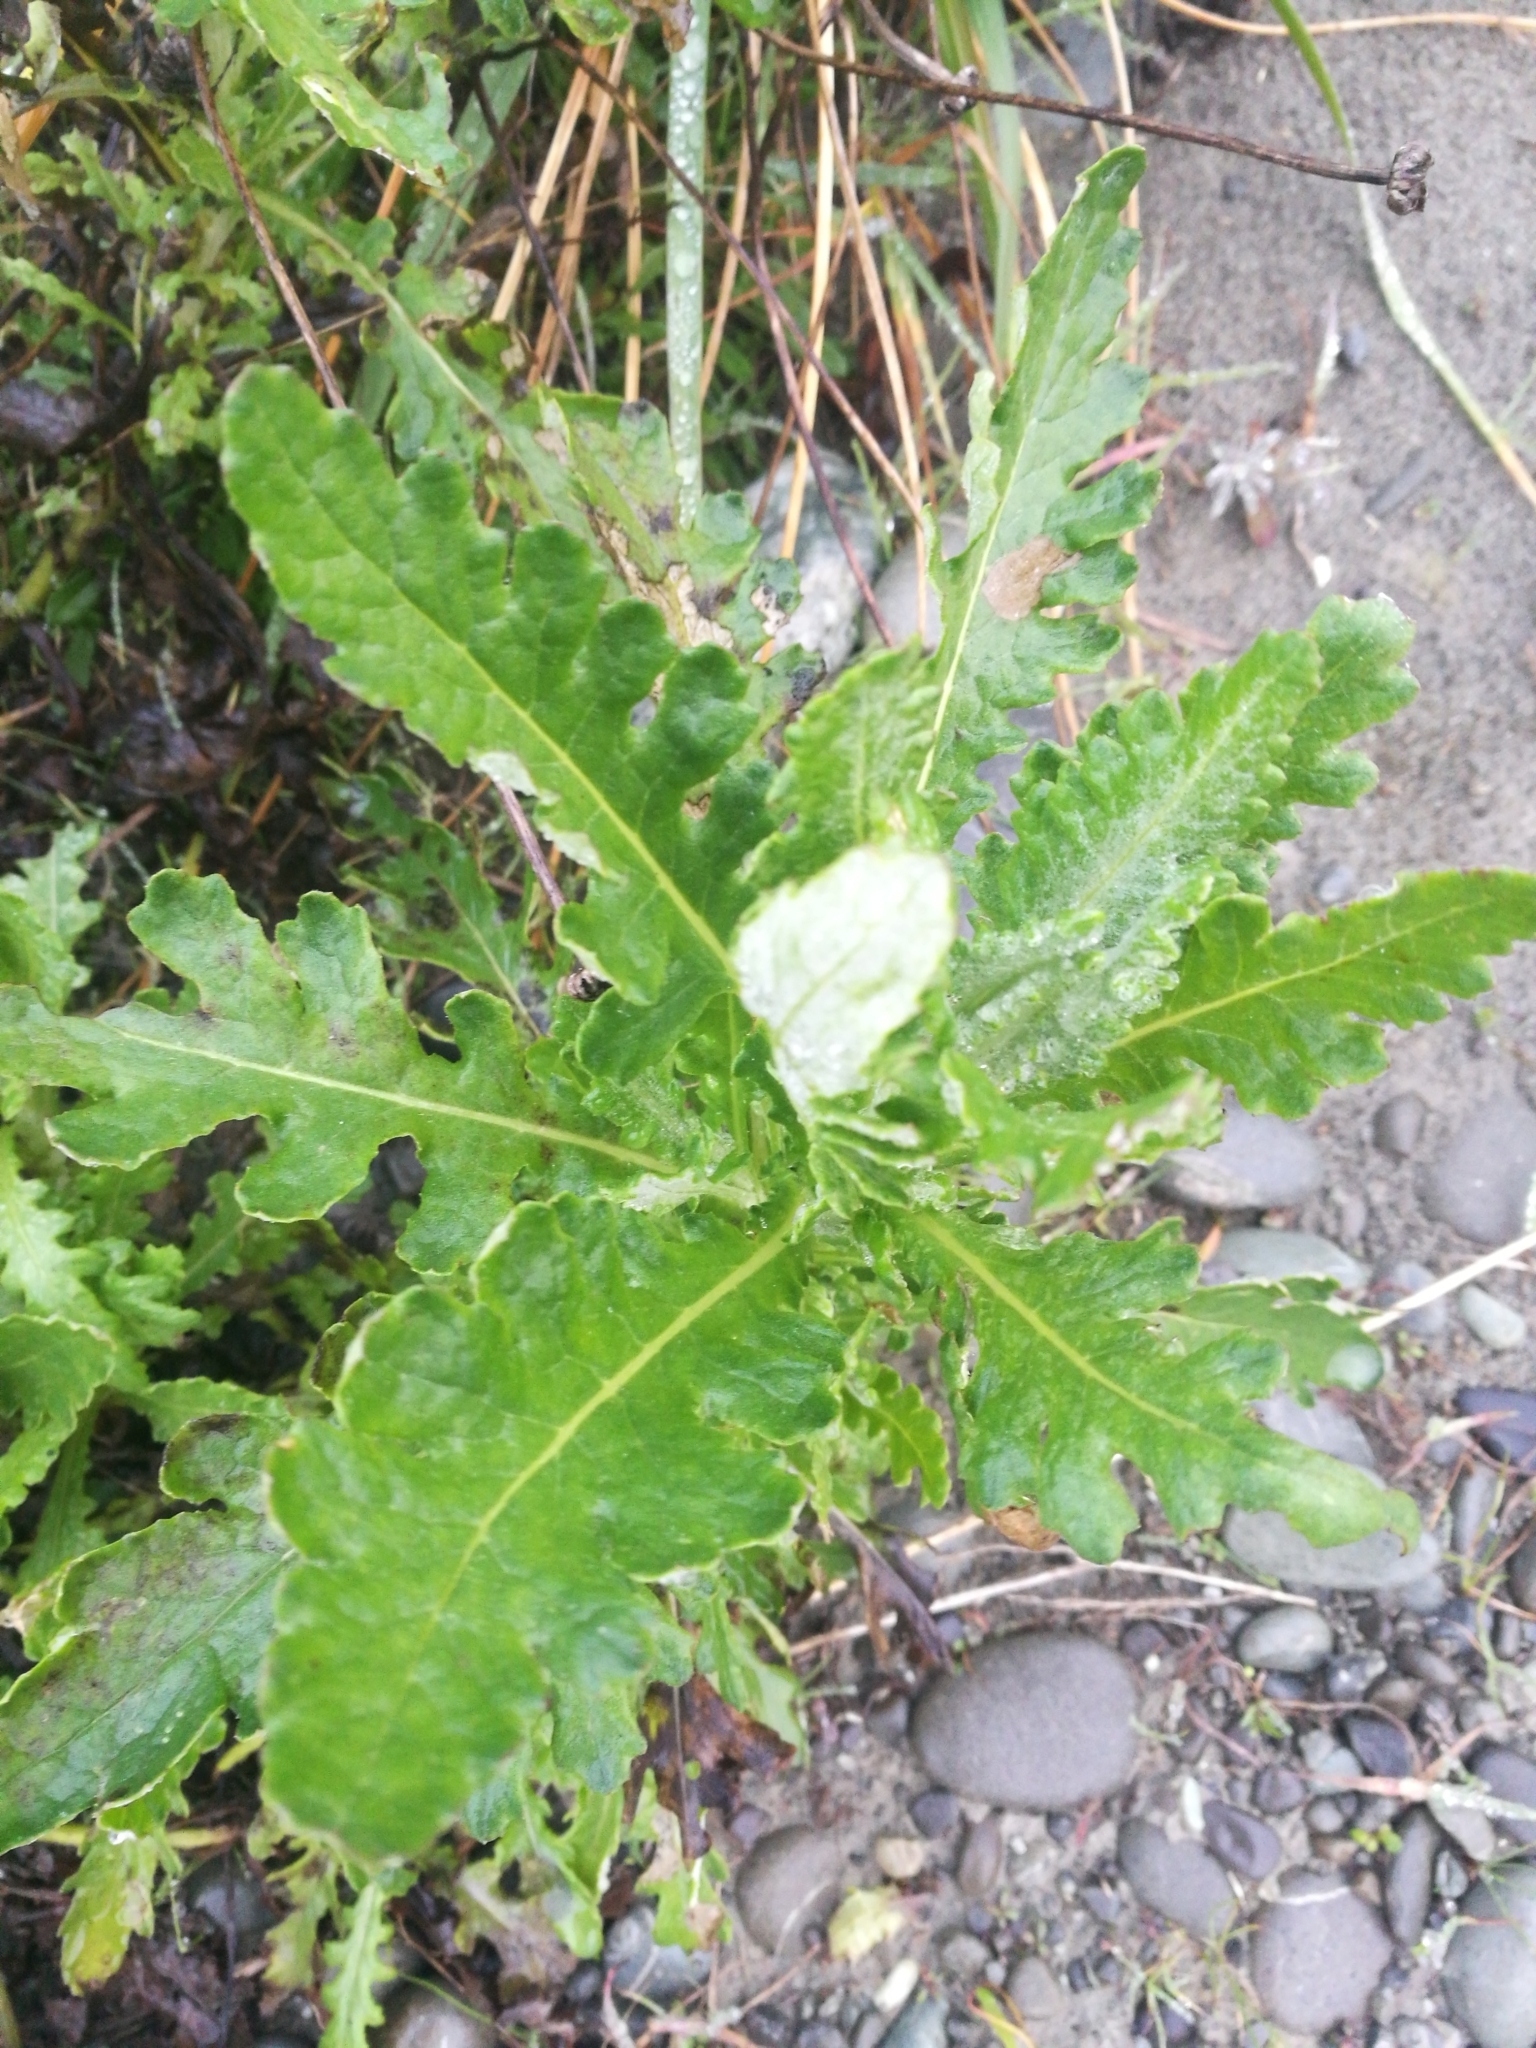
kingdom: Plantae
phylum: Tracheophyta
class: Magnoliopsida
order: Asterales
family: Asteraceae
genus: Senecio
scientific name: Senecio glomeratus
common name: Cutleaf burnweed
